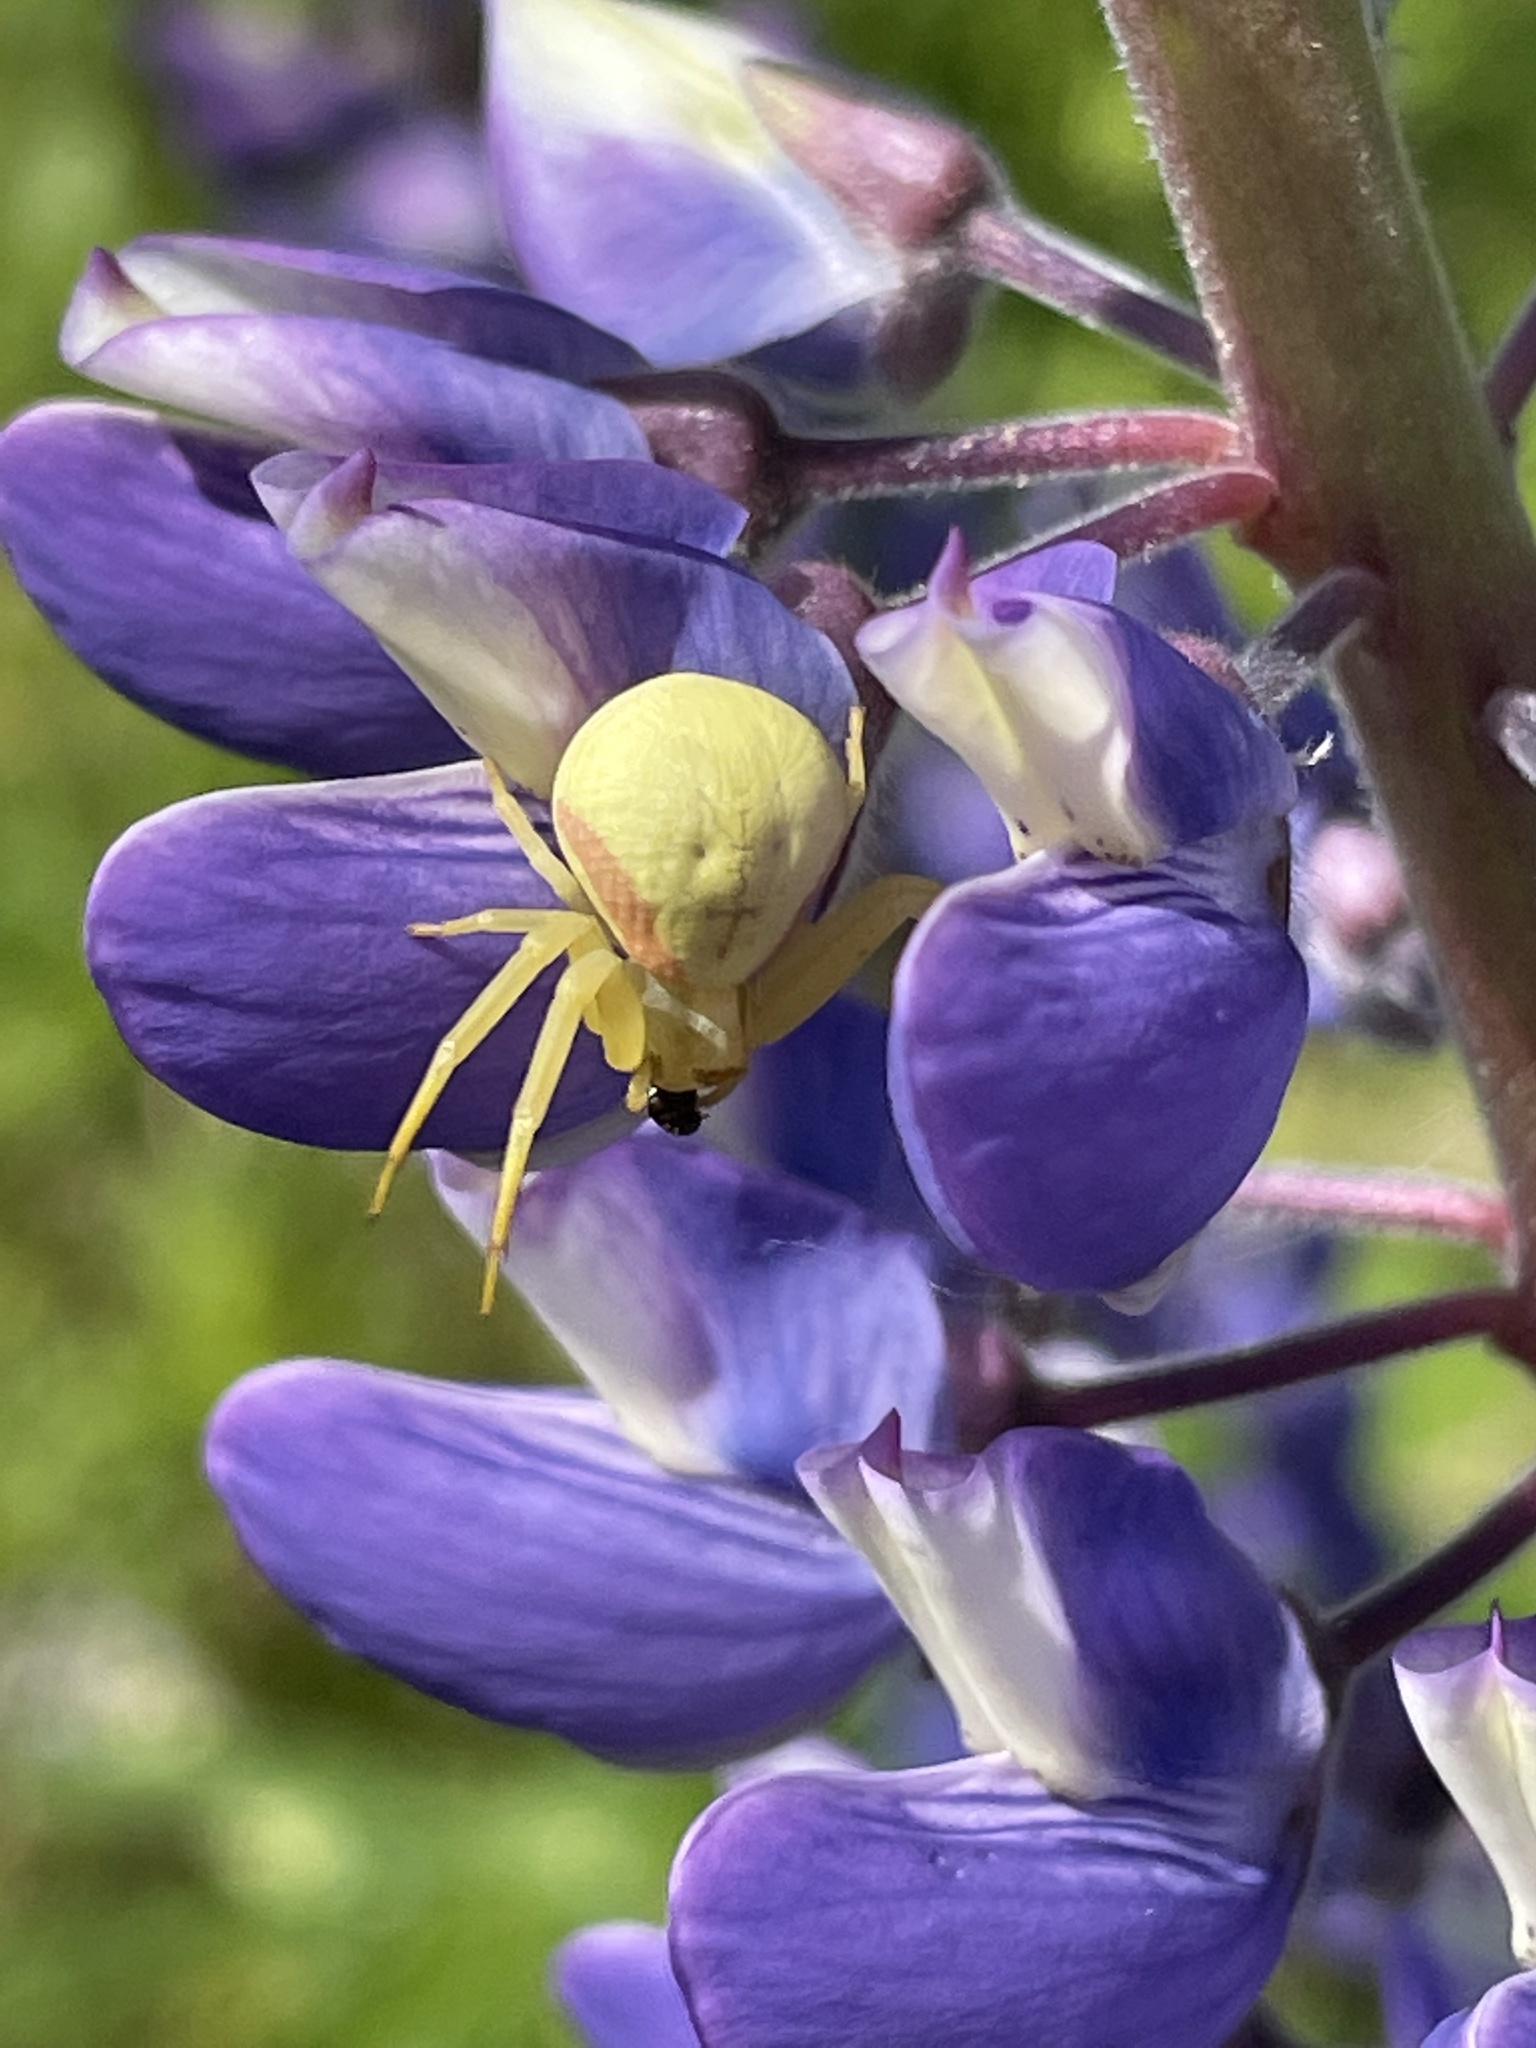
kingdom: Animalia
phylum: Arthropoda
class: Arachnida
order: Araneae
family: Thomisidae
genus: Misumena
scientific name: Misumena vatia
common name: Goldenrod crab spider
